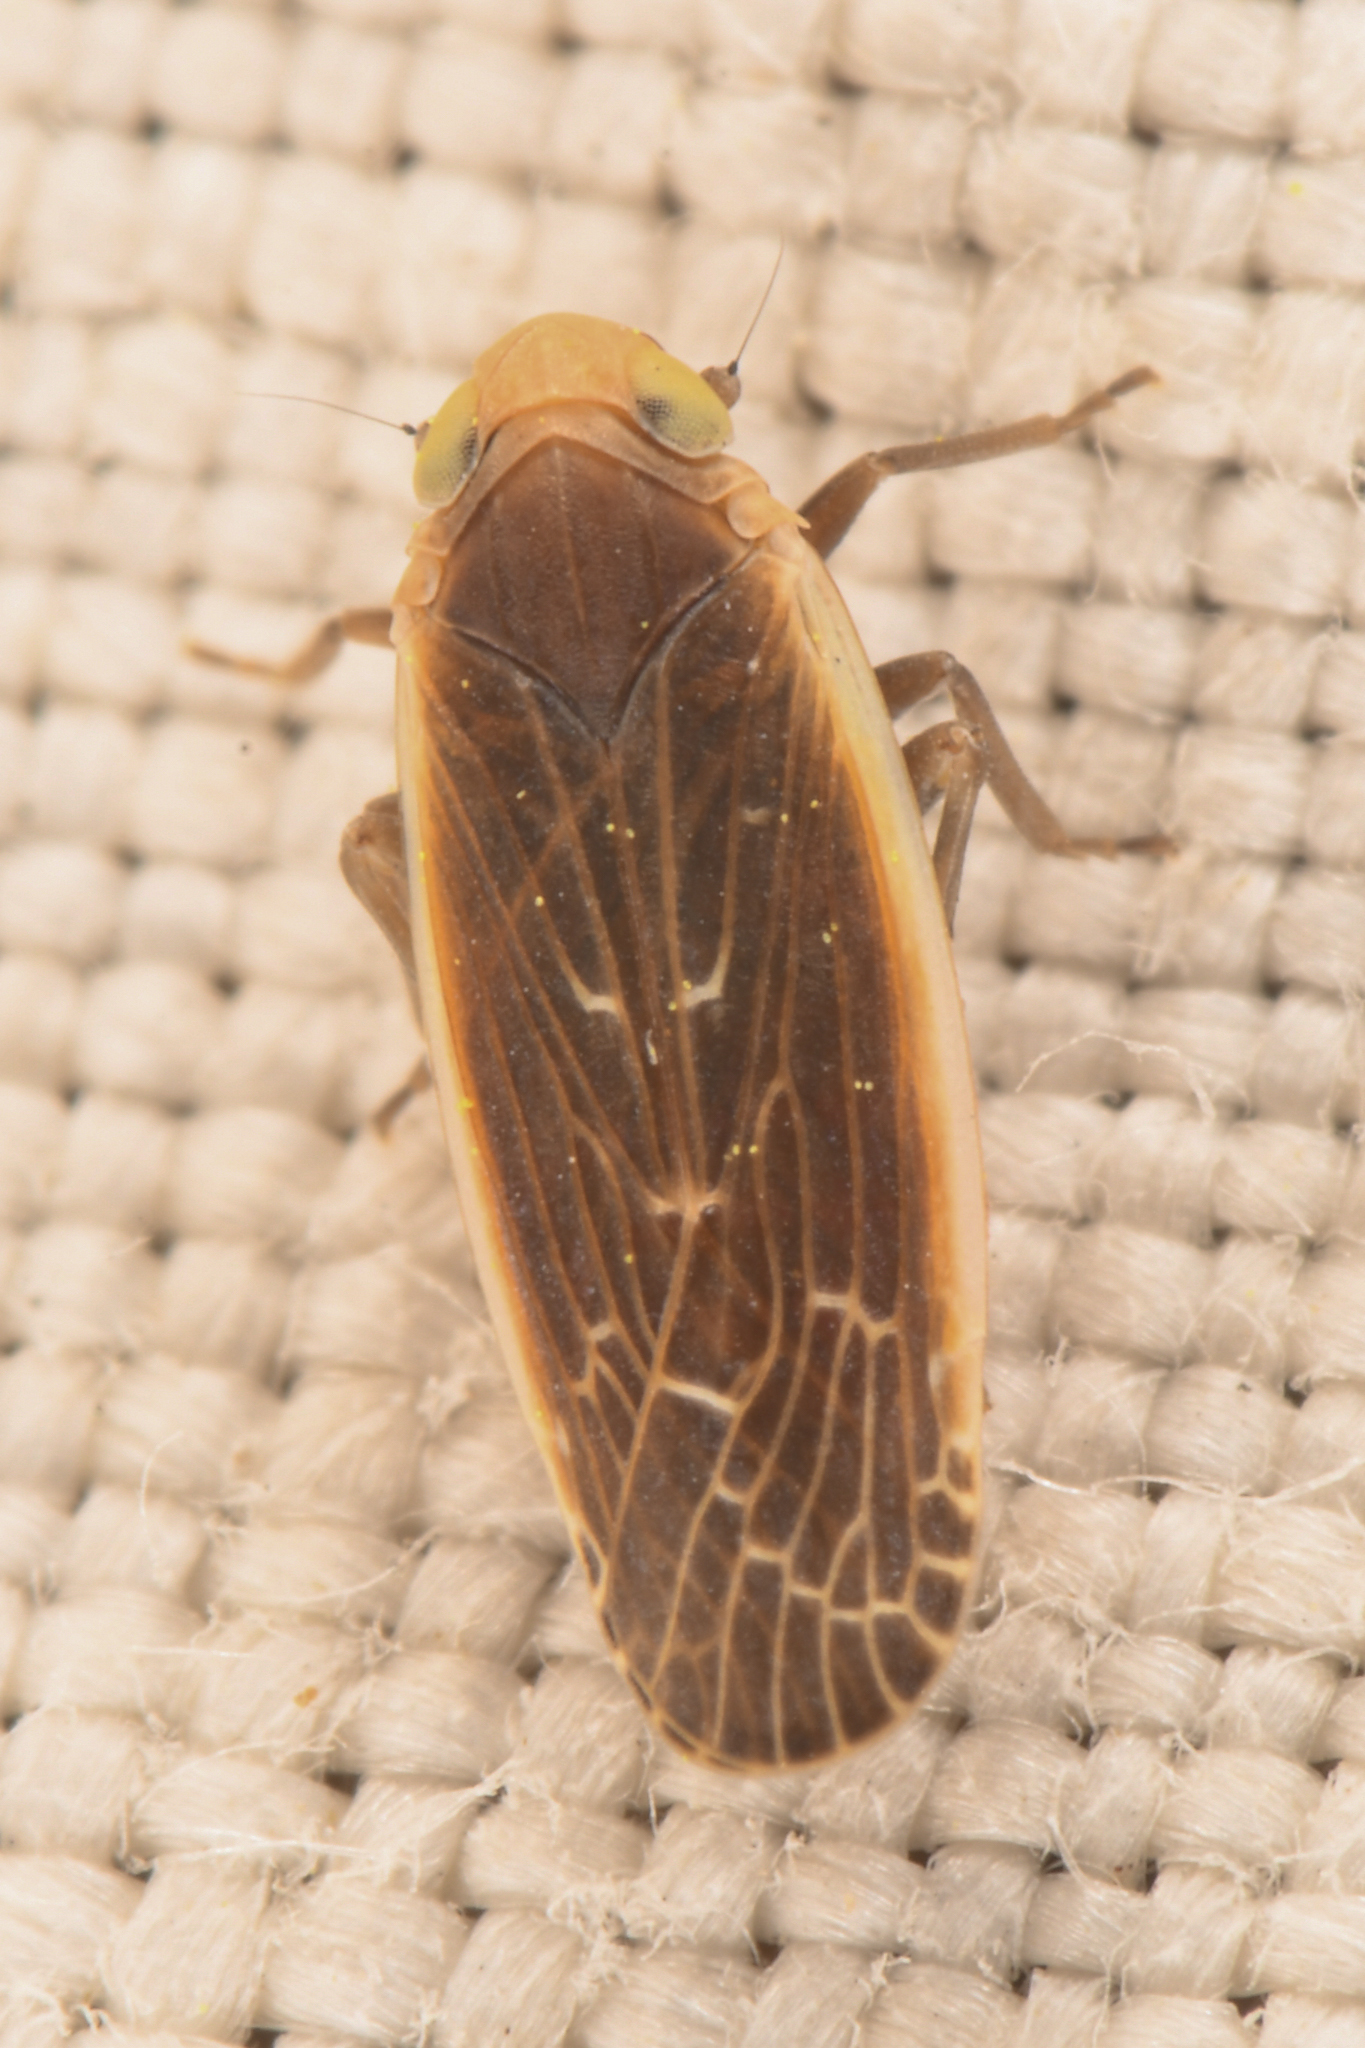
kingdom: Animalia
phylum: Arthropoda
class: Insecta
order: Hemiptera
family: Achilidae
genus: Synecdoche
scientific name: Synecdoche necopina
